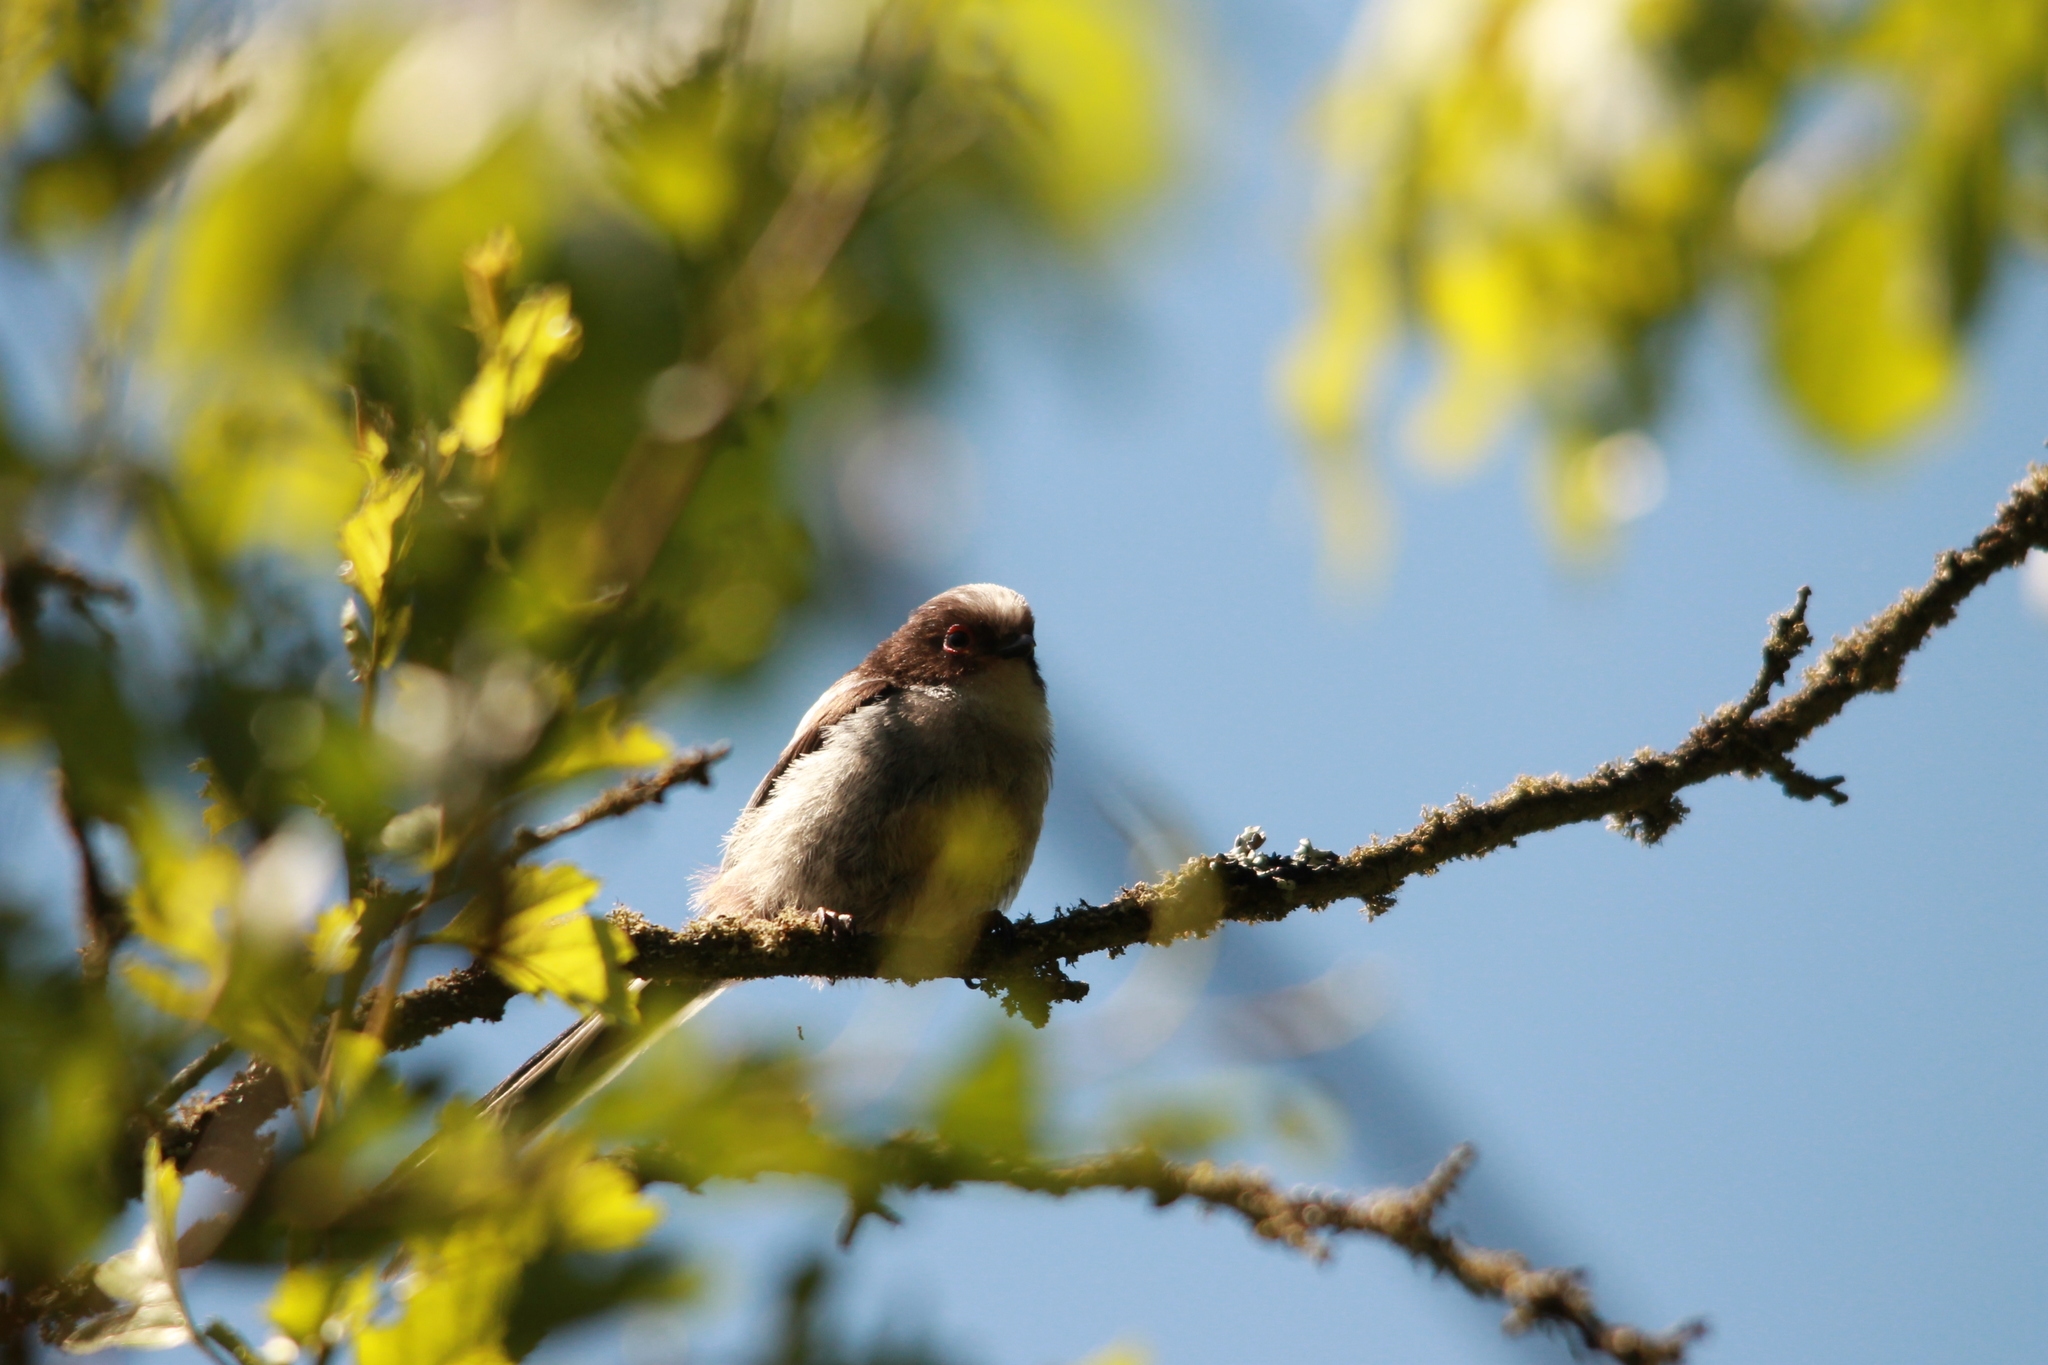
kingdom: Animalia
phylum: Chordata
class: Aves
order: Passeriformes
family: Aegithalidae
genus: Aegithalos
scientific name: Aegithalos caudatus
